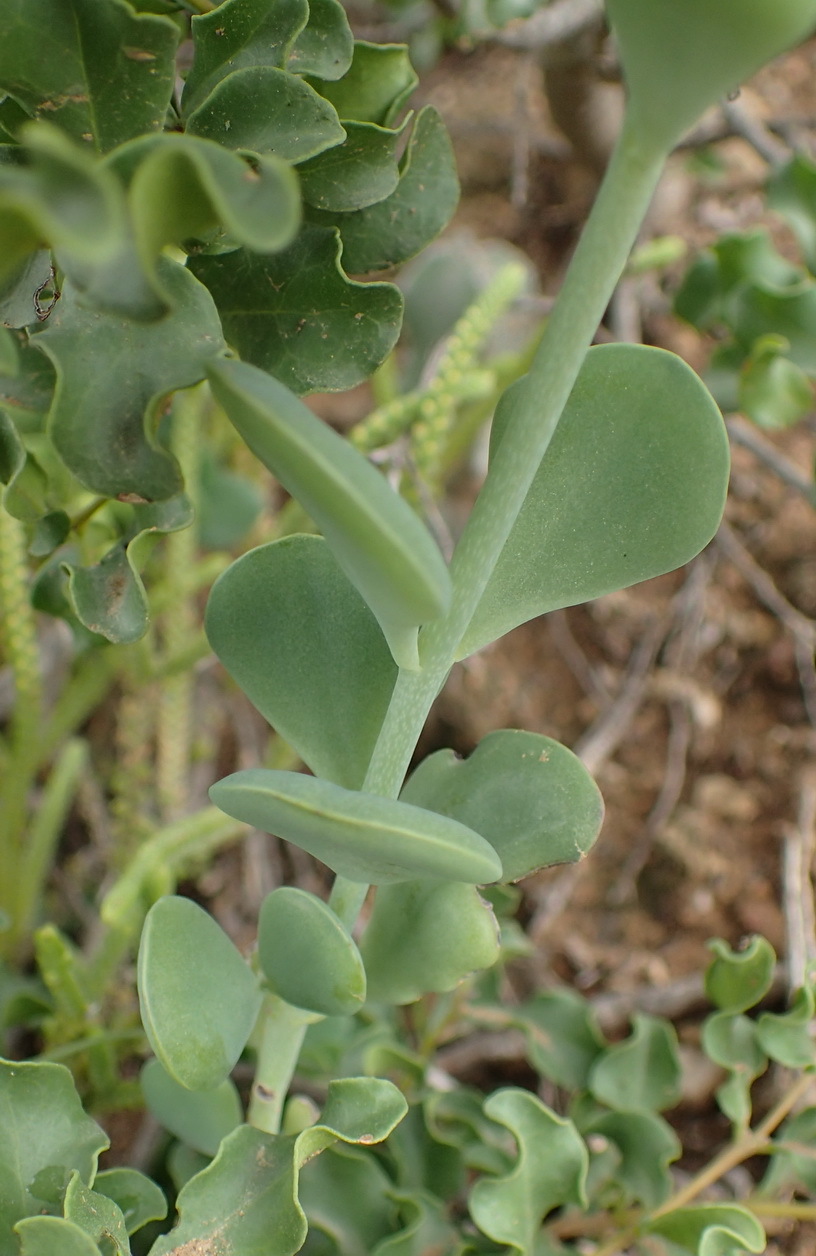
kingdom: Plantae
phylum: Tracheophyta
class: Magnoliopsida
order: Saxifragales
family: Crassulaceae
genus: Kalanchoe
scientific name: Kalanchoe rotundifolia
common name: Common kalanchoe
